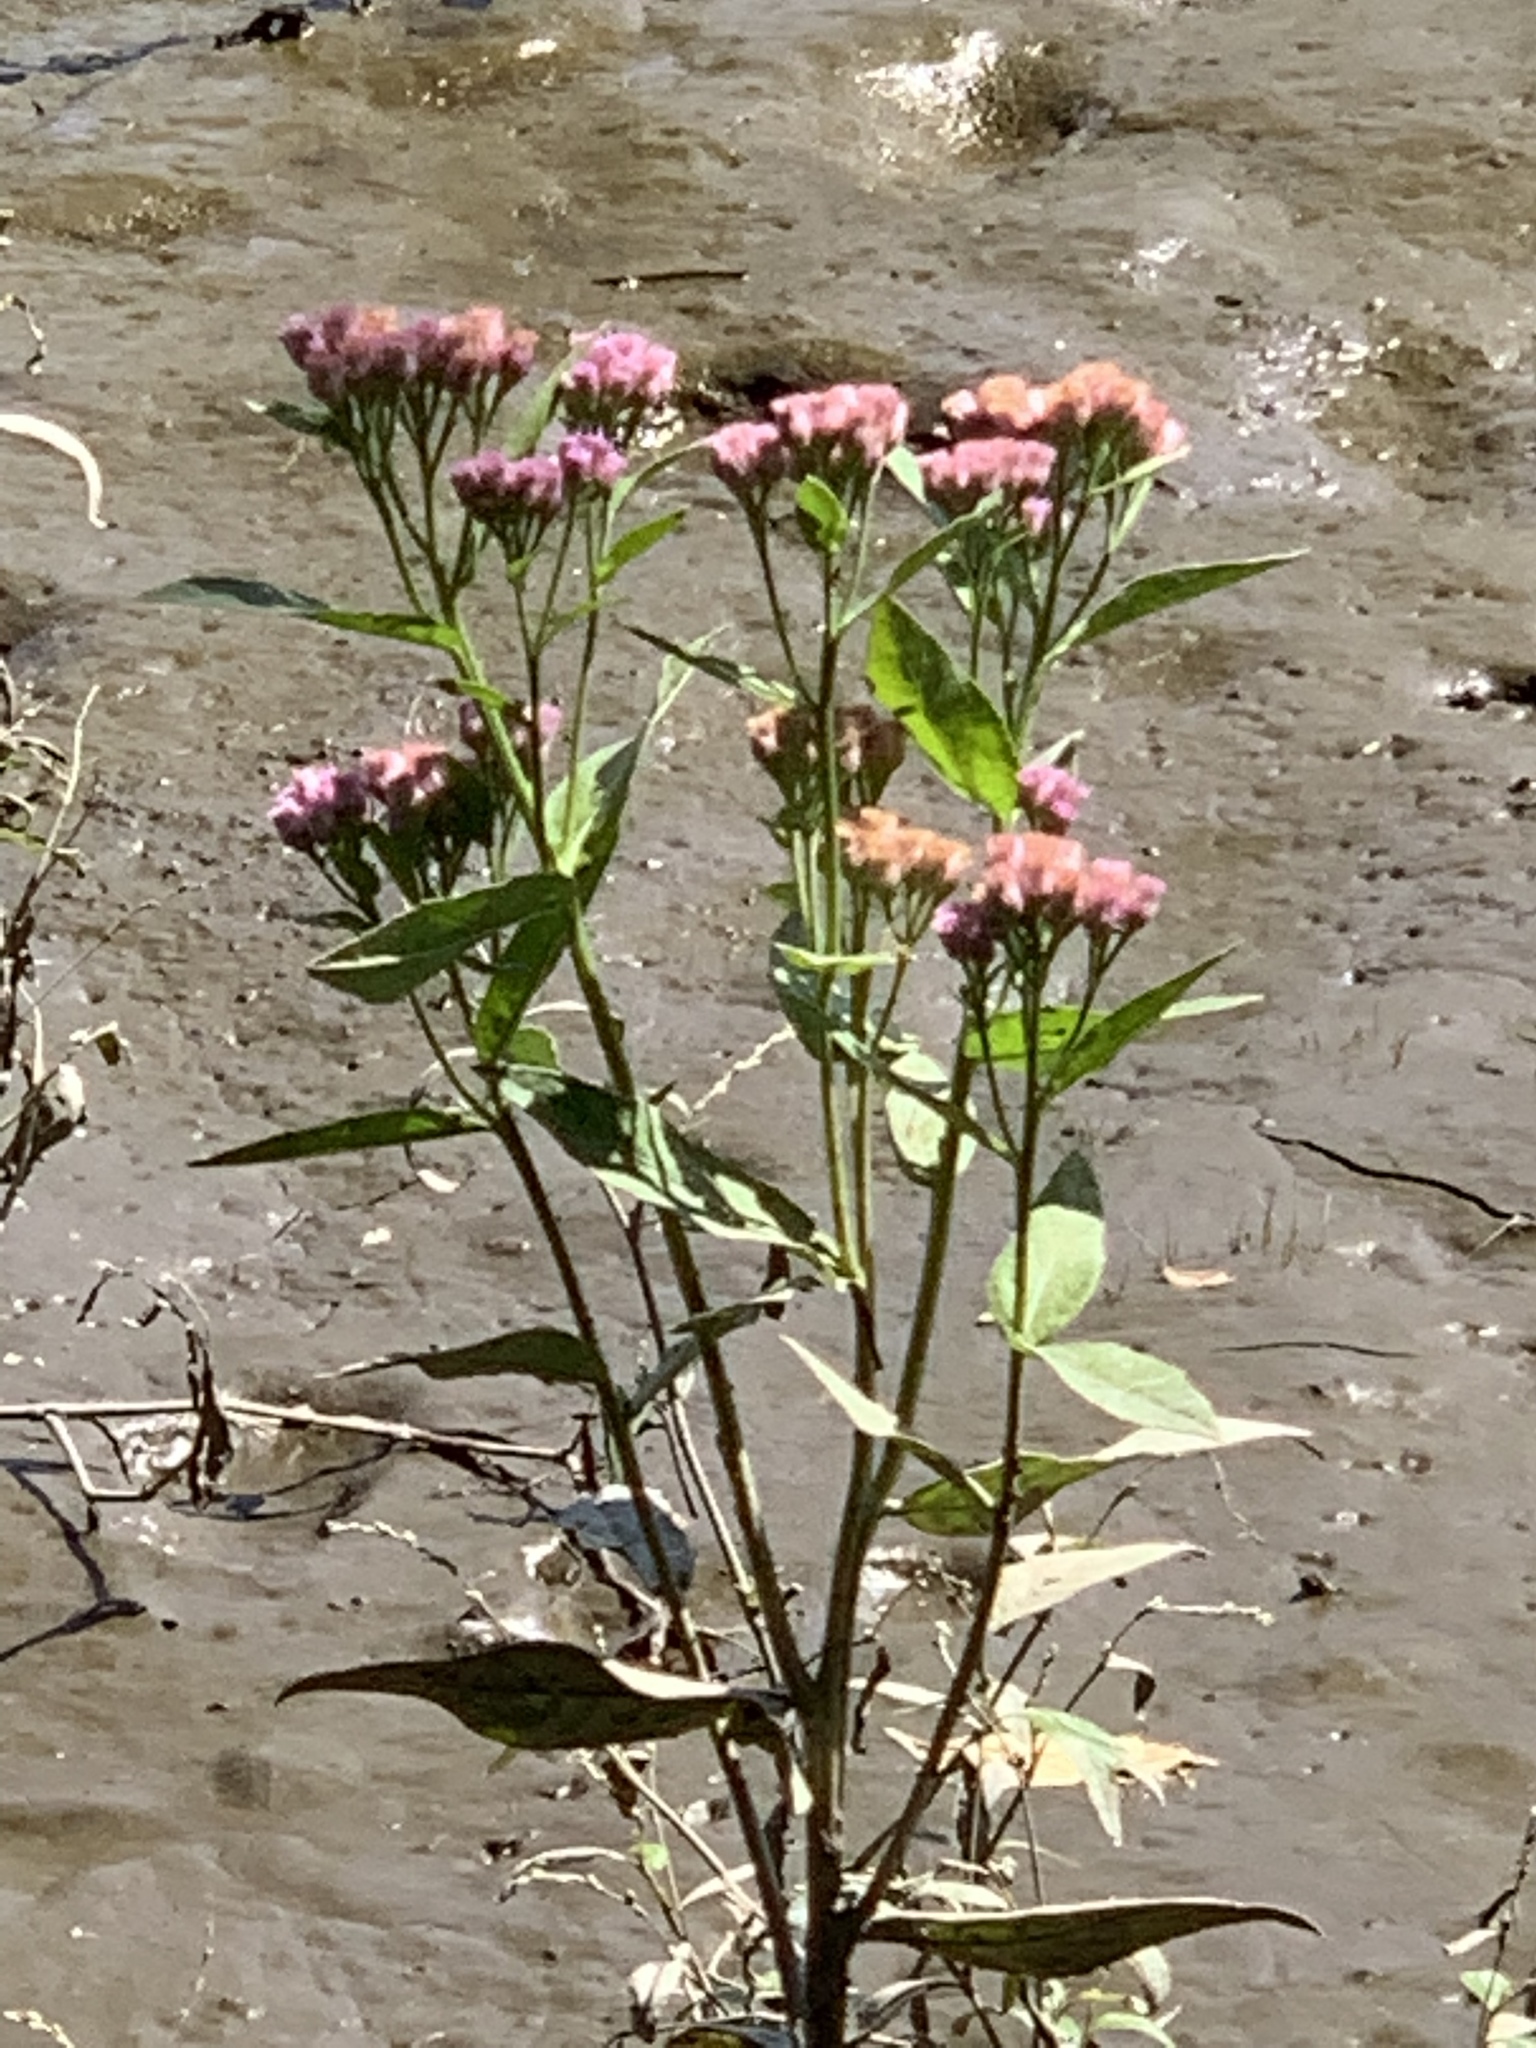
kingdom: Plantae
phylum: Tracheophyta
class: Magnoliopsida
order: Asterales
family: Asteraceae
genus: Pluchea
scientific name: Pluchea odorata
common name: Saltmarsh fleabane
